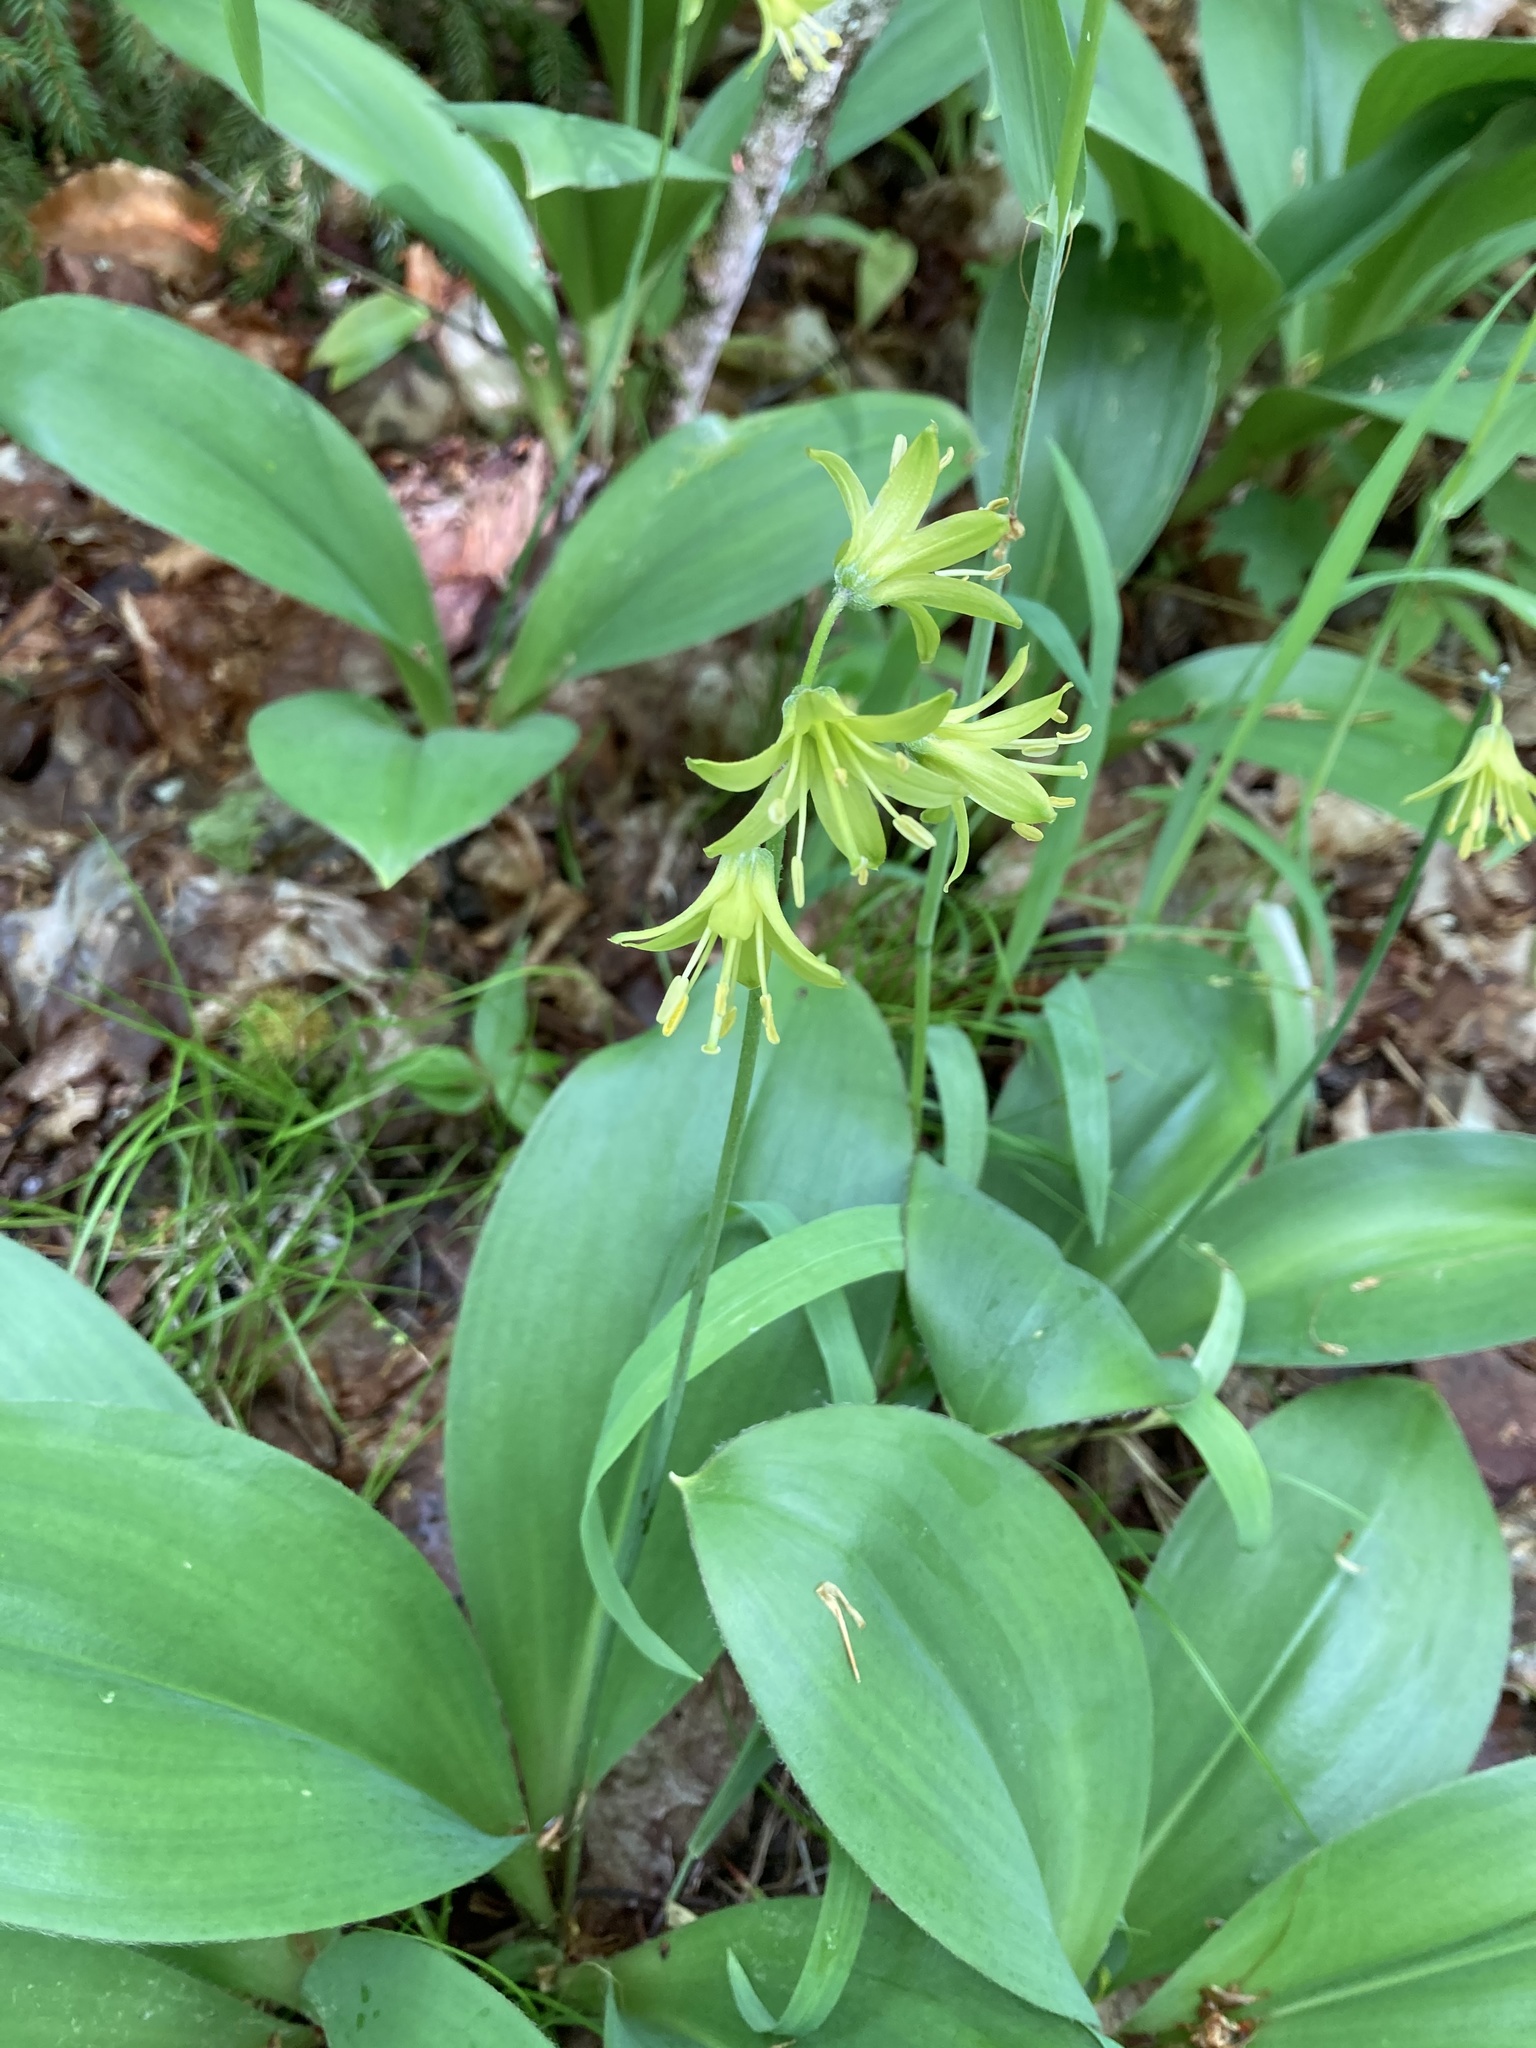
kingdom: Plantae
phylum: Tracheophyta
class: Liliopsida
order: Liliales
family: Liliaceae
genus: Clintonia
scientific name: Clintonia borealis
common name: Yellow clintonia
